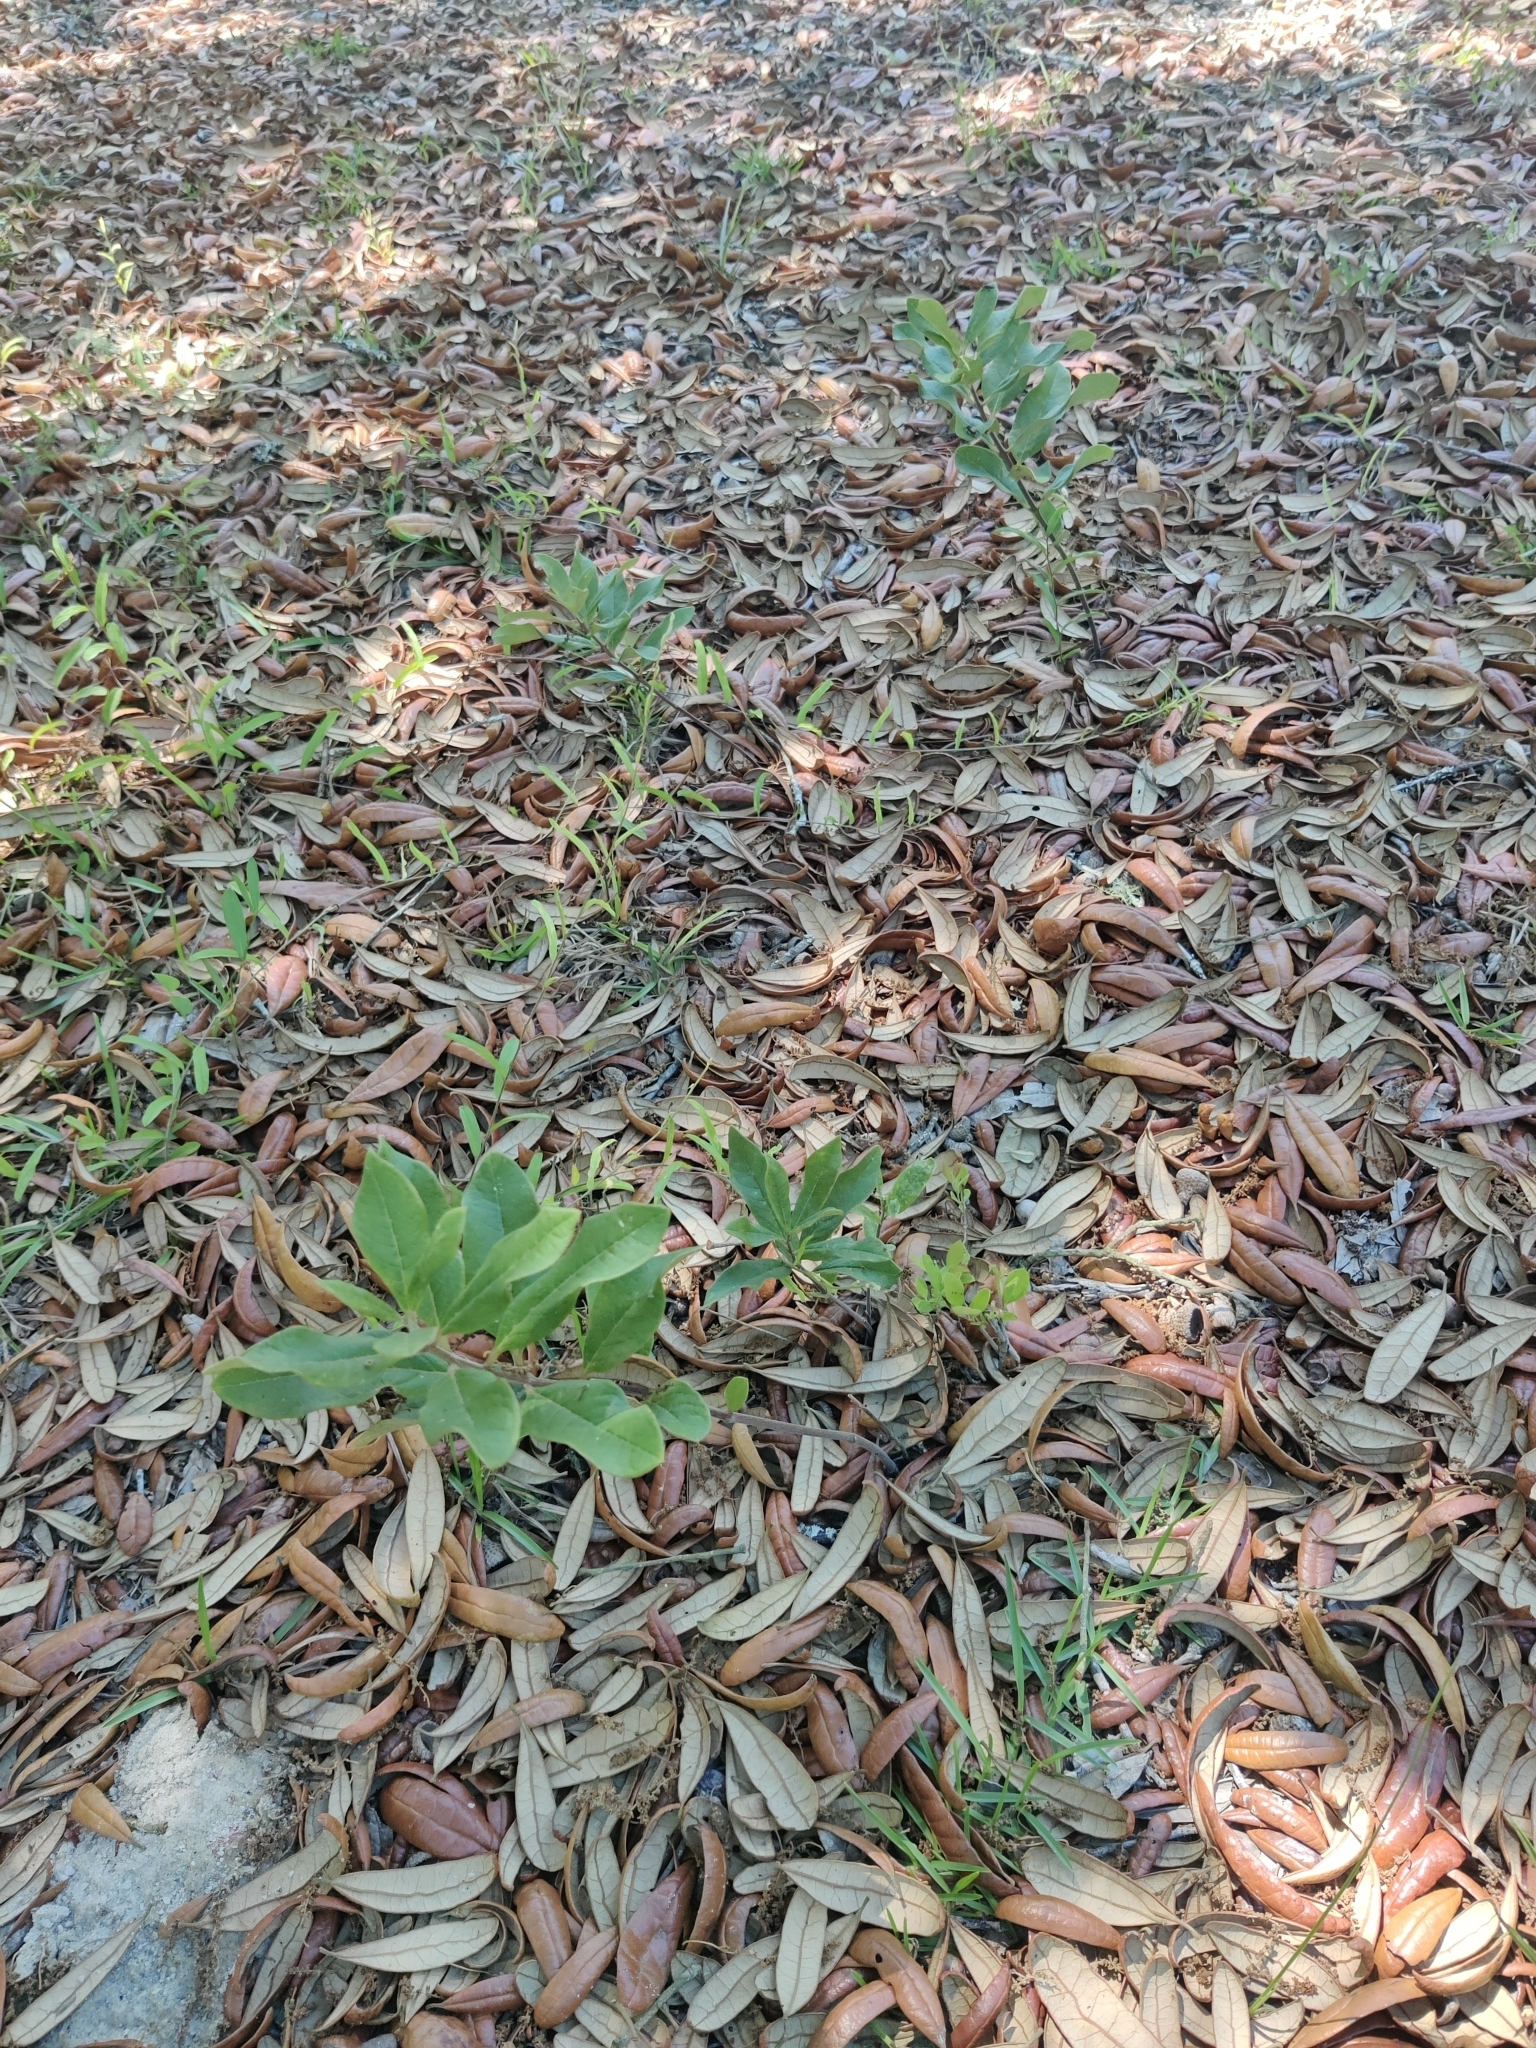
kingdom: Plantae
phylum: Tracheophyta
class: Magnoliopsida
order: Gentianales
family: Apocynaceae
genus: Asclepias
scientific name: Asclepias tomentosa
